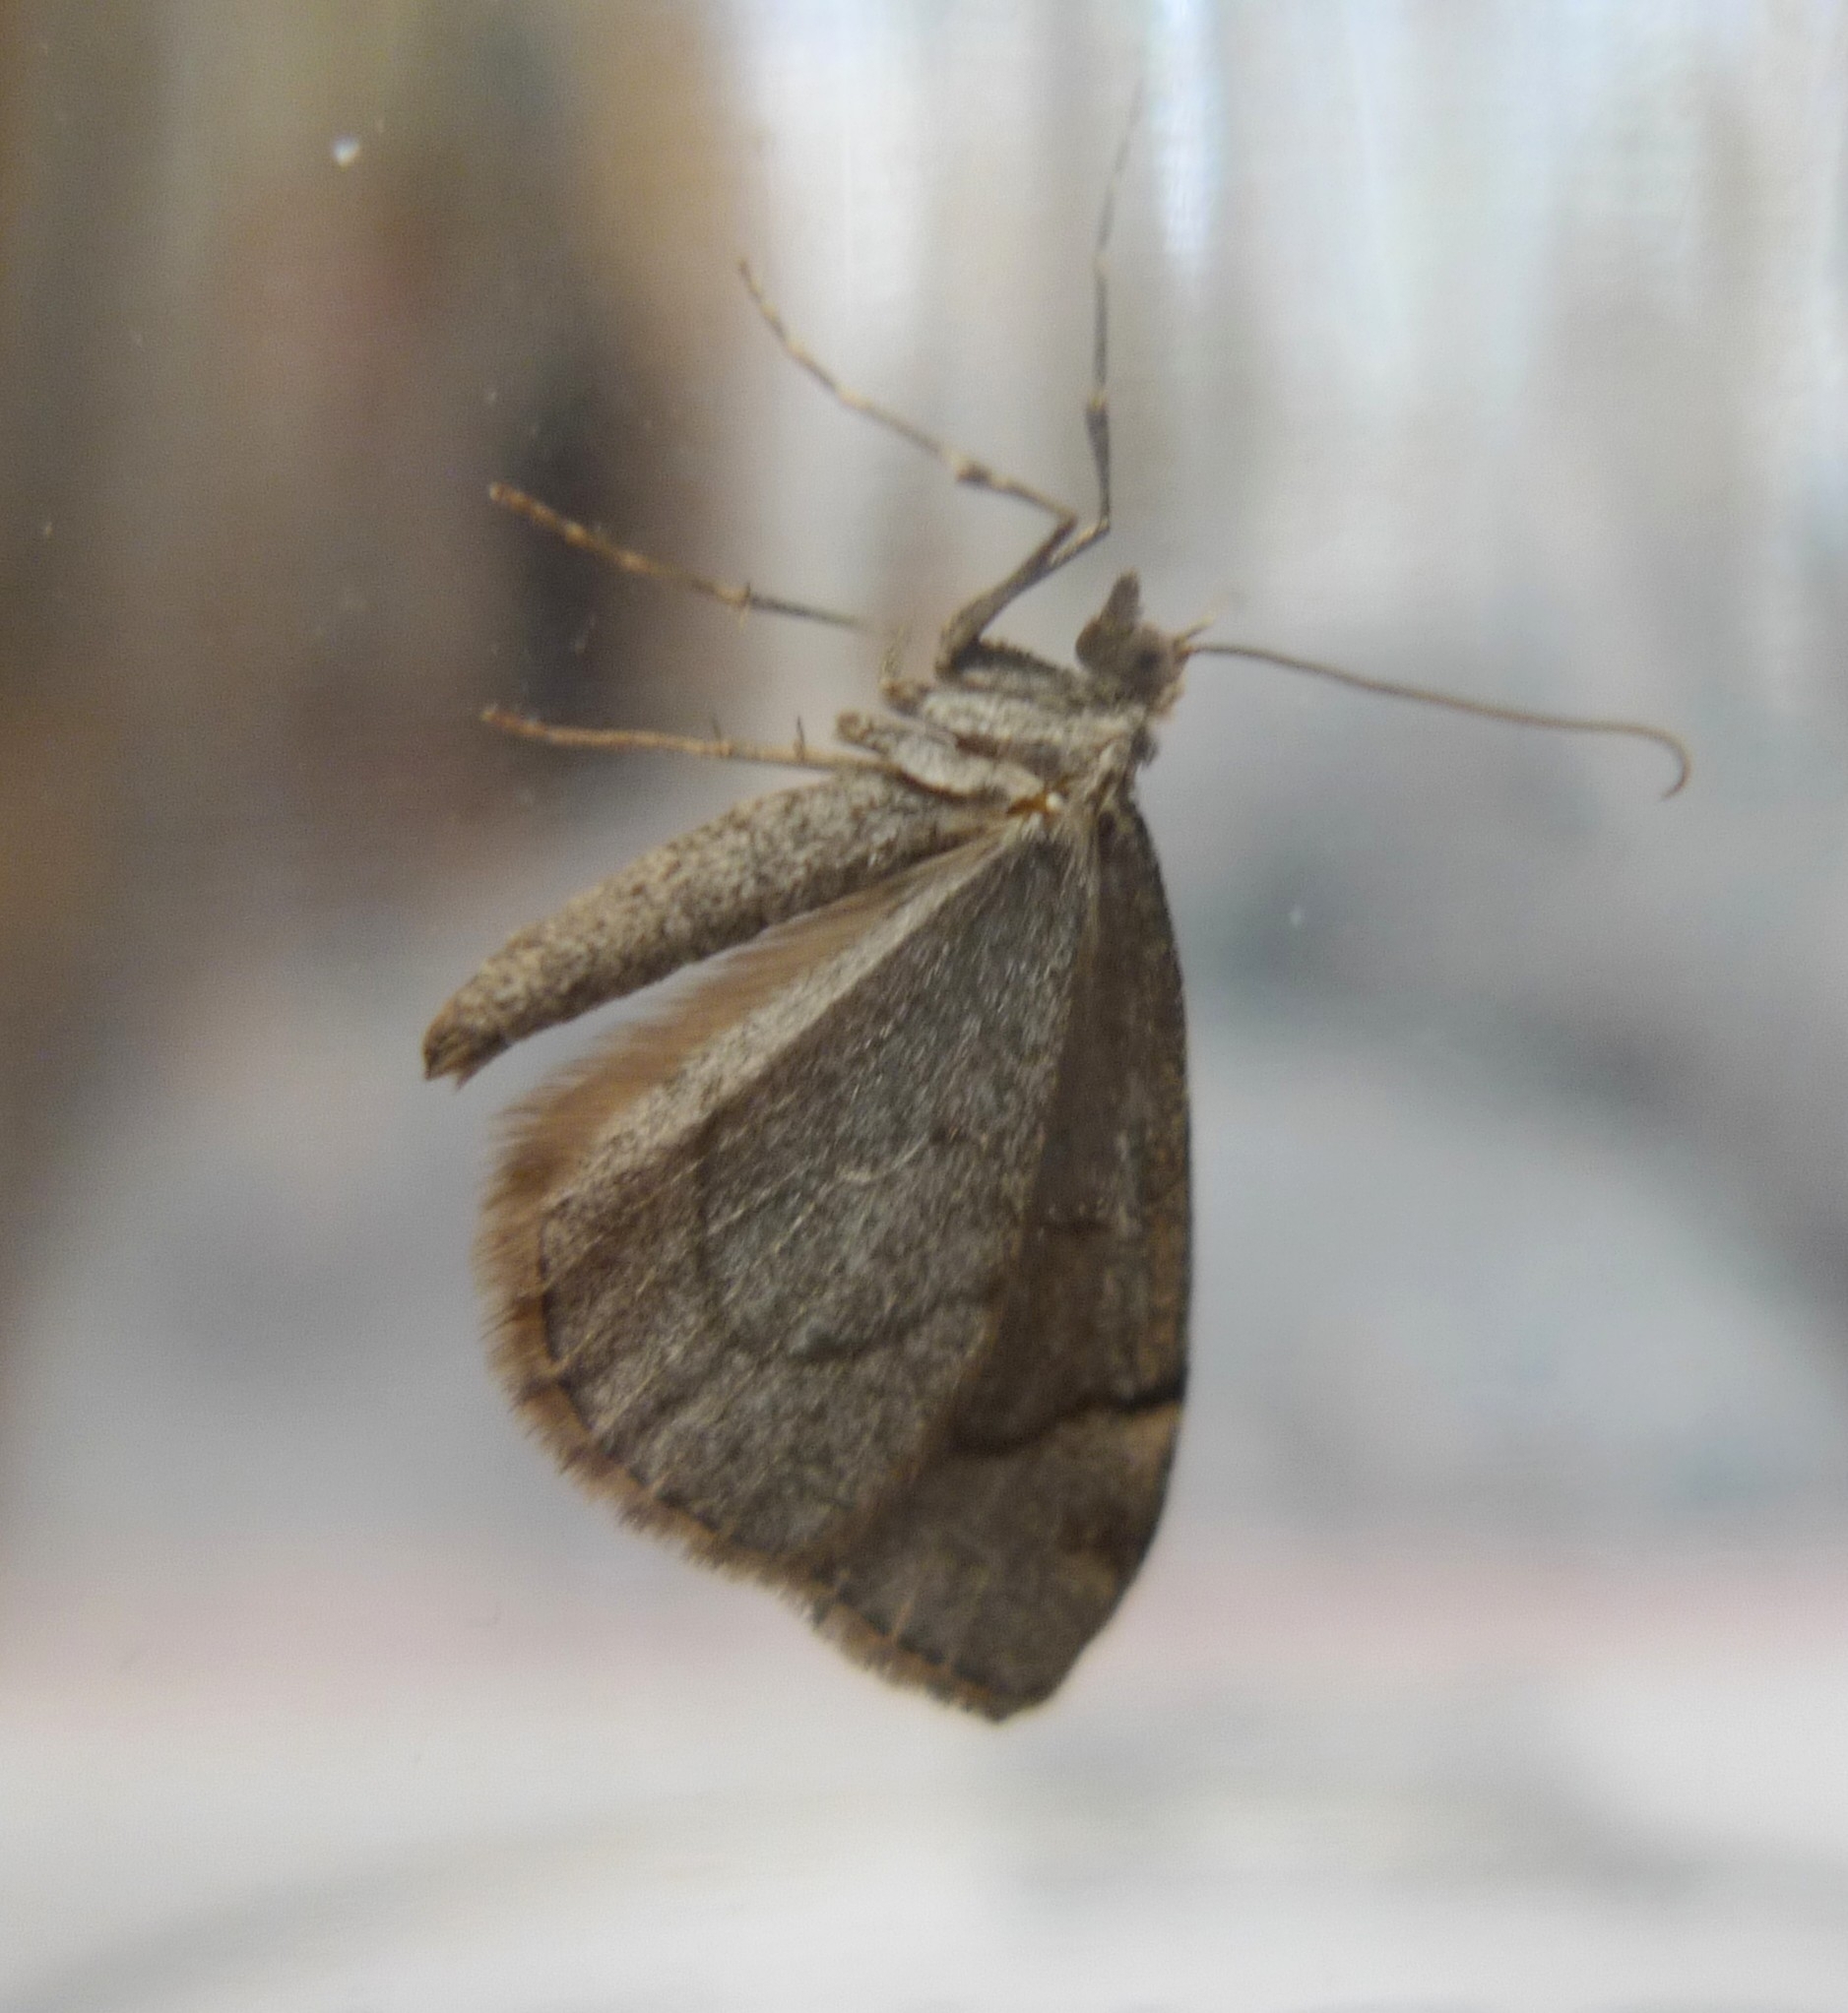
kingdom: Animalia
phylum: Arthropoda
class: Insecta
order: Lepidoptera
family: Geometridae
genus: Thera
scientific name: Thera juniperata
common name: Juniper carpet
